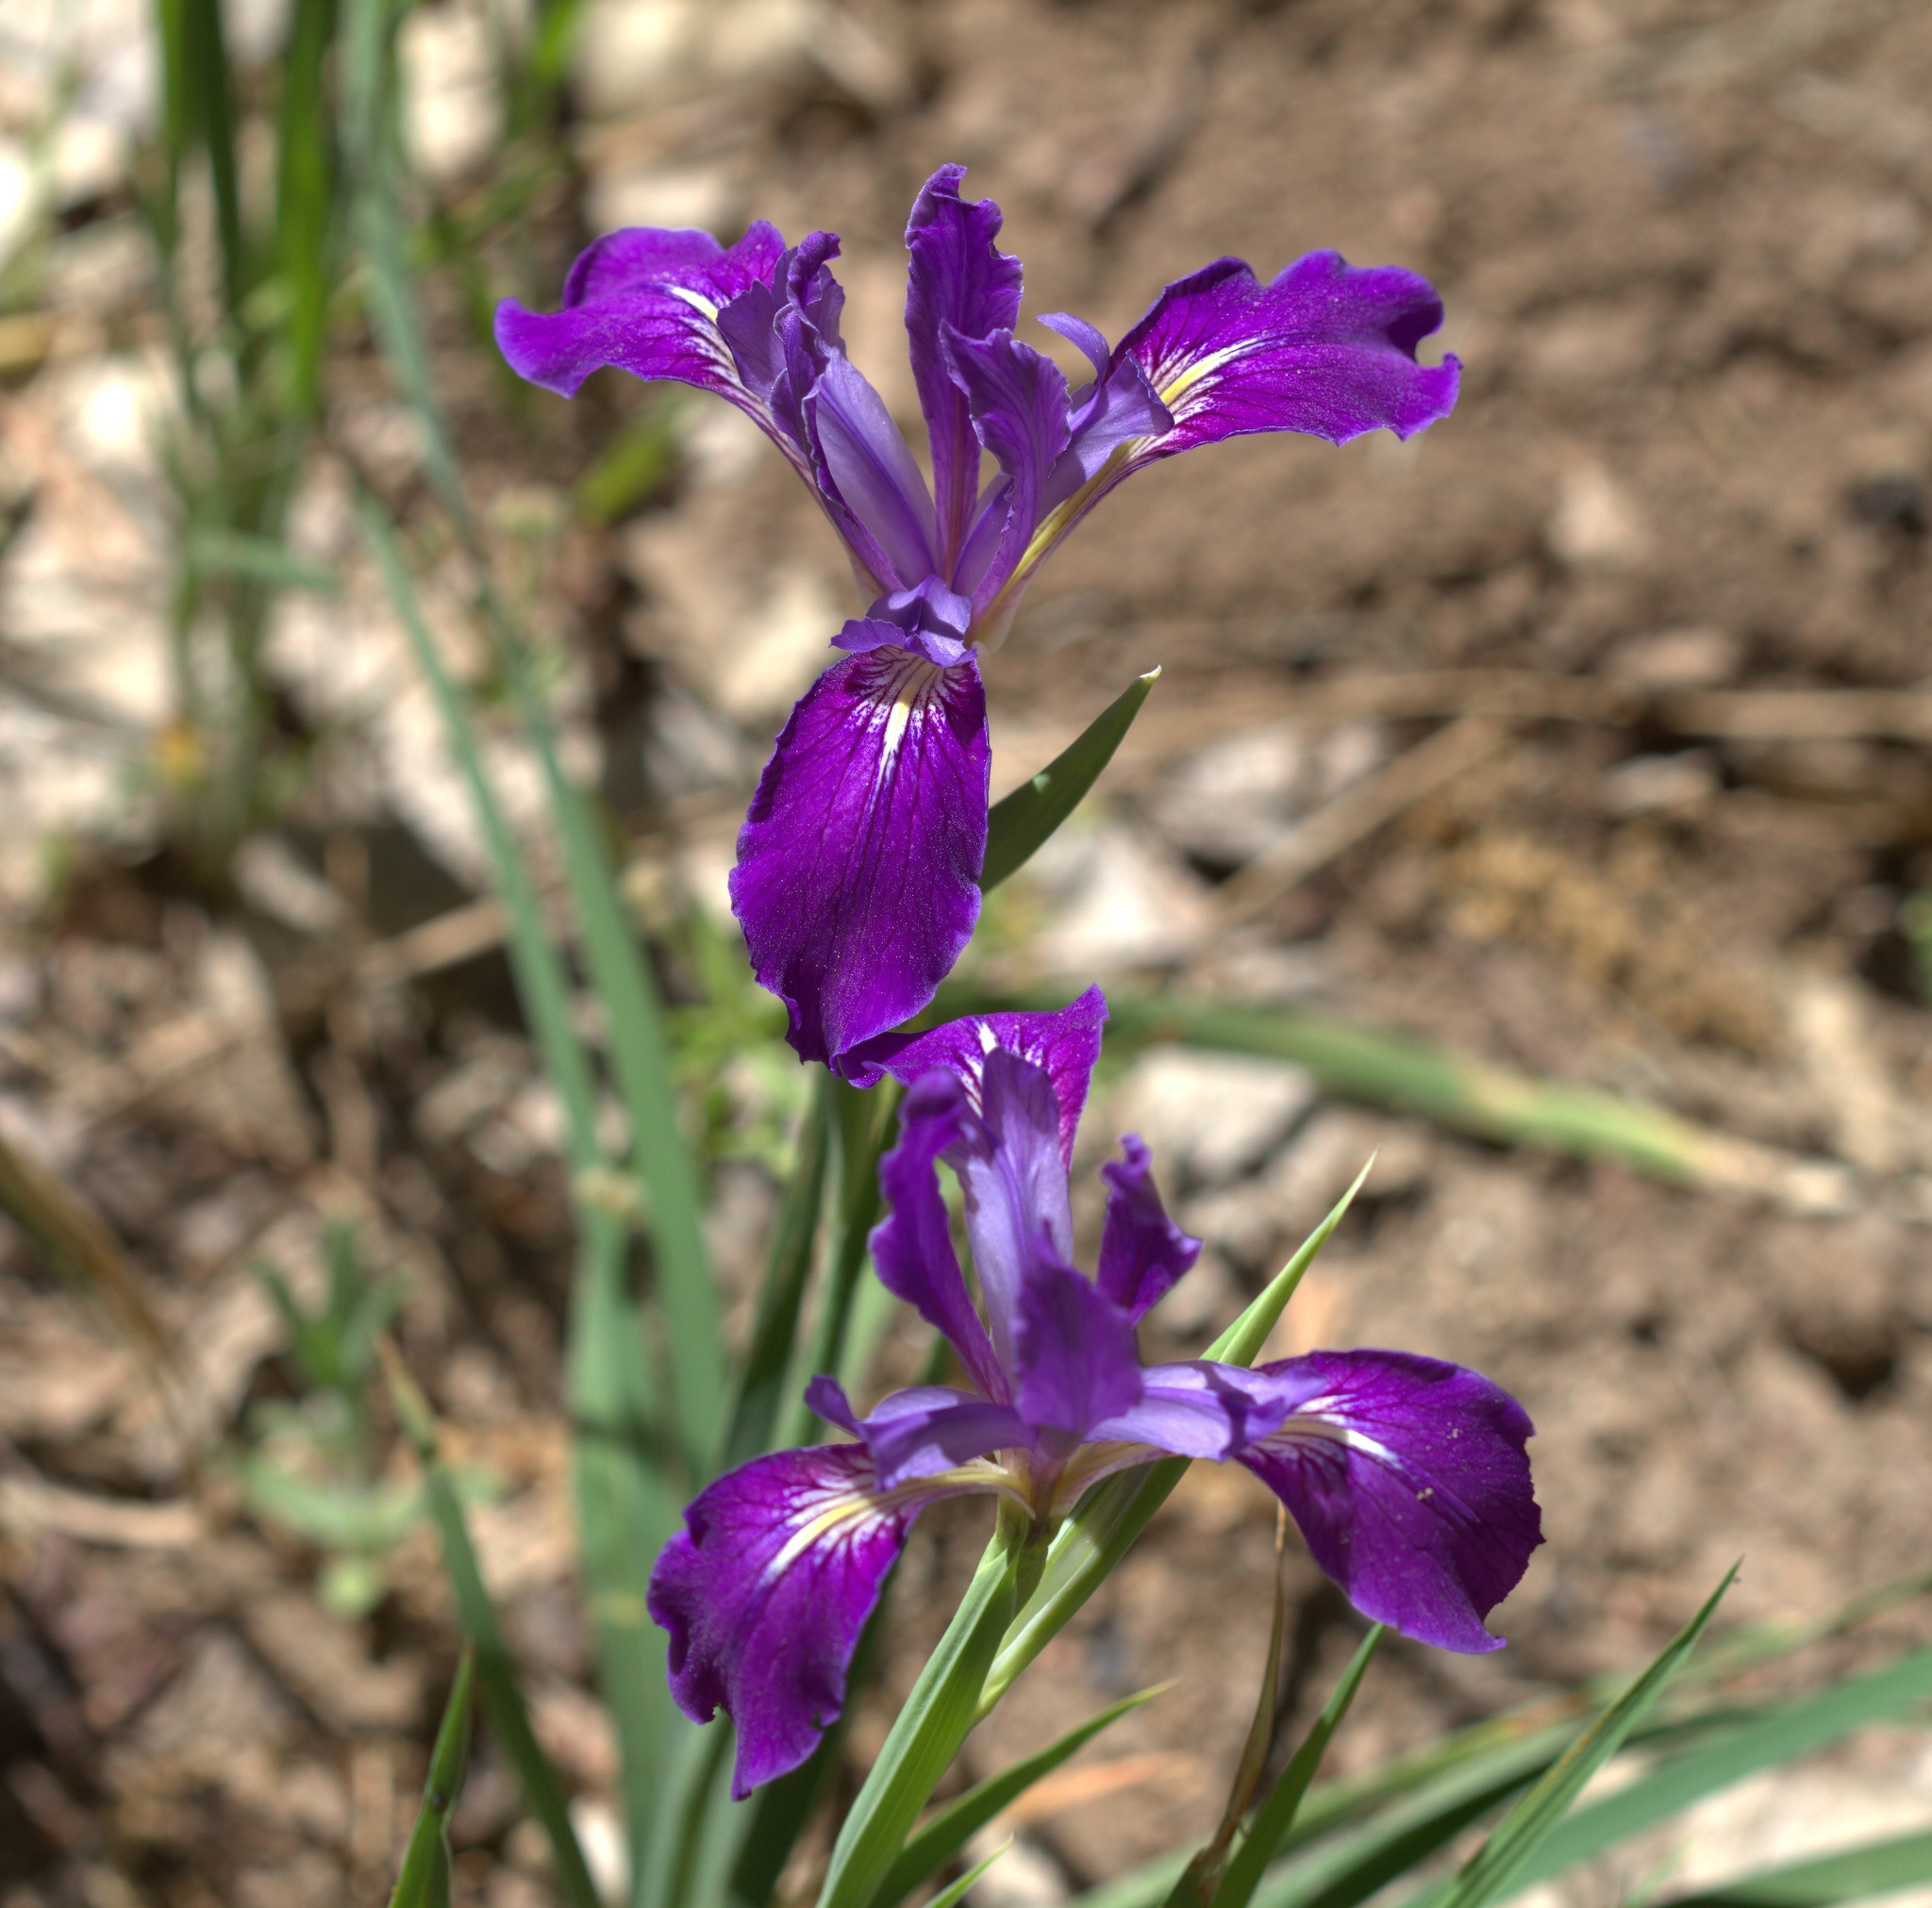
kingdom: Plantae
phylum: Tracheophyta
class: Liliopsida
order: Asparagales
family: Iridaceae
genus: Iris
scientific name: Iris hartwegii
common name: Sierra iris
